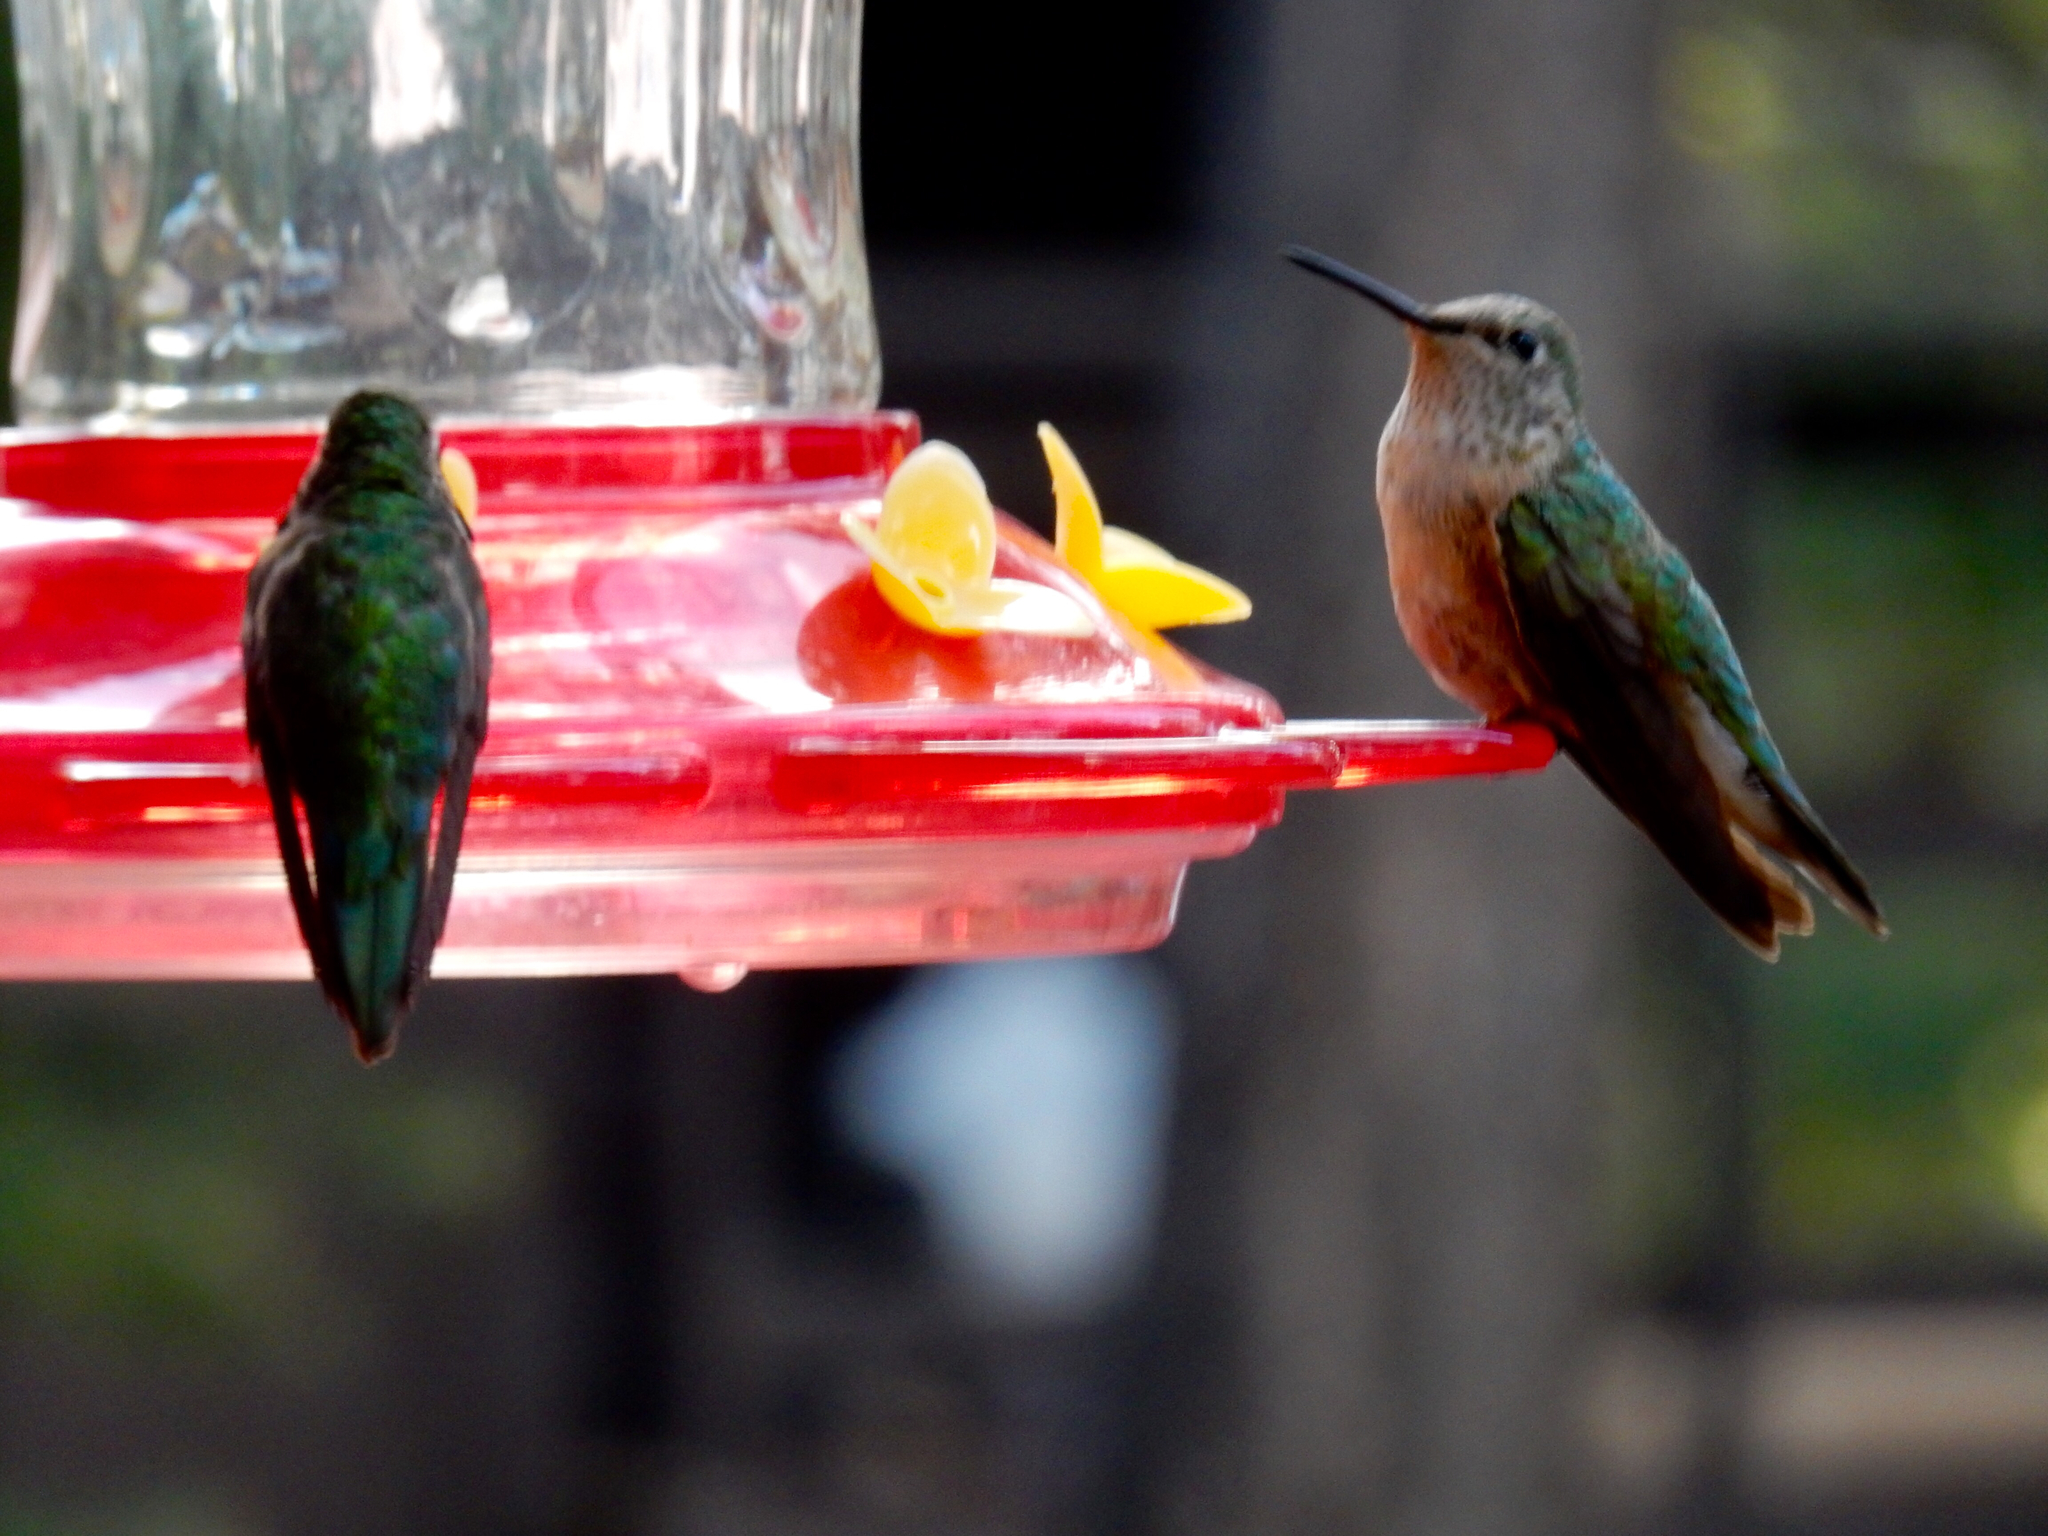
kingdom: Animalia
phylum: Chordata
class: Aves
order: Apodiformes
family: Trochilidae
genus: Selasphorus
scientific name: Selasphorus platycercus
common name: Broad-tailed hummingbird
